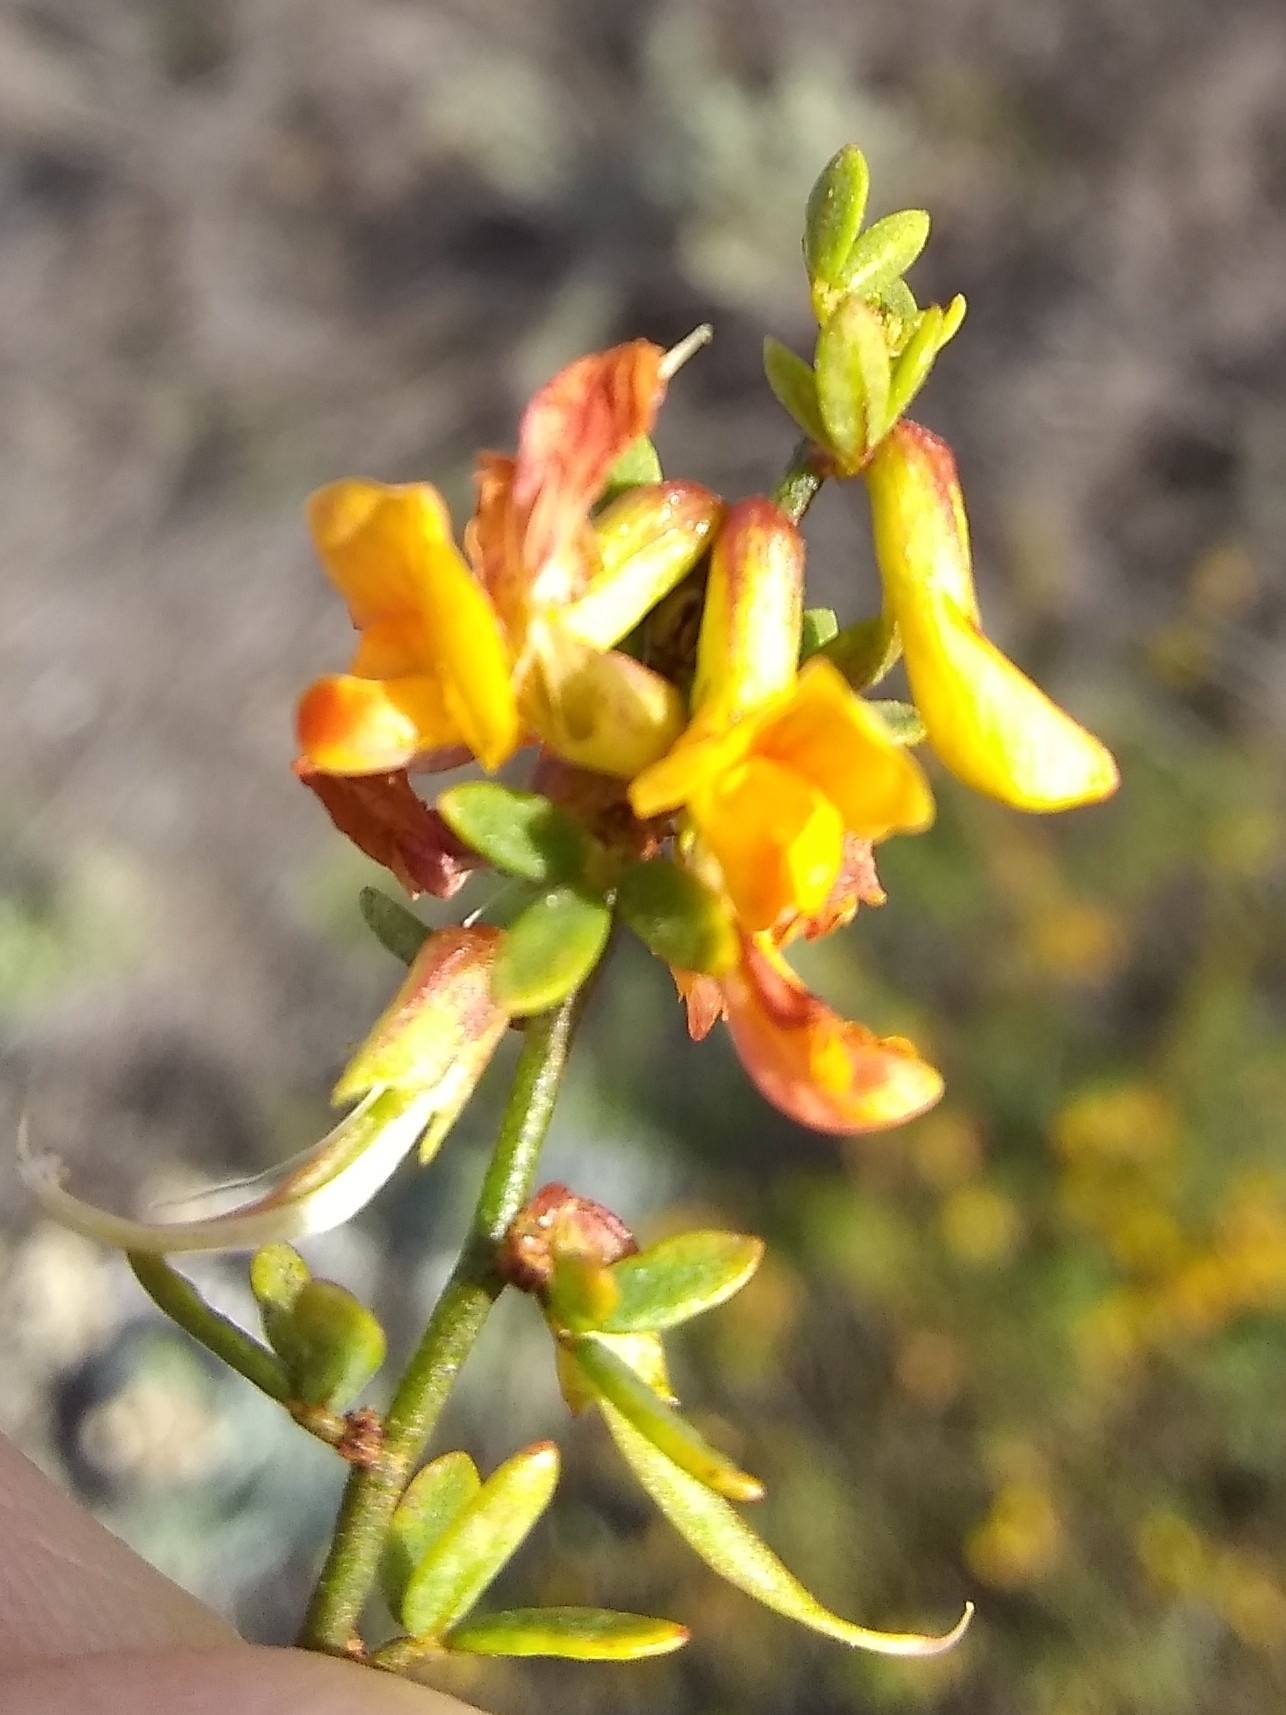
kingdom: Plantae
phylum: Tracheophyta
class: Magnoliopsida
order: Fabales
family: Fabaceae
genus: Acmispon
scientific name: Acmispon glaber
